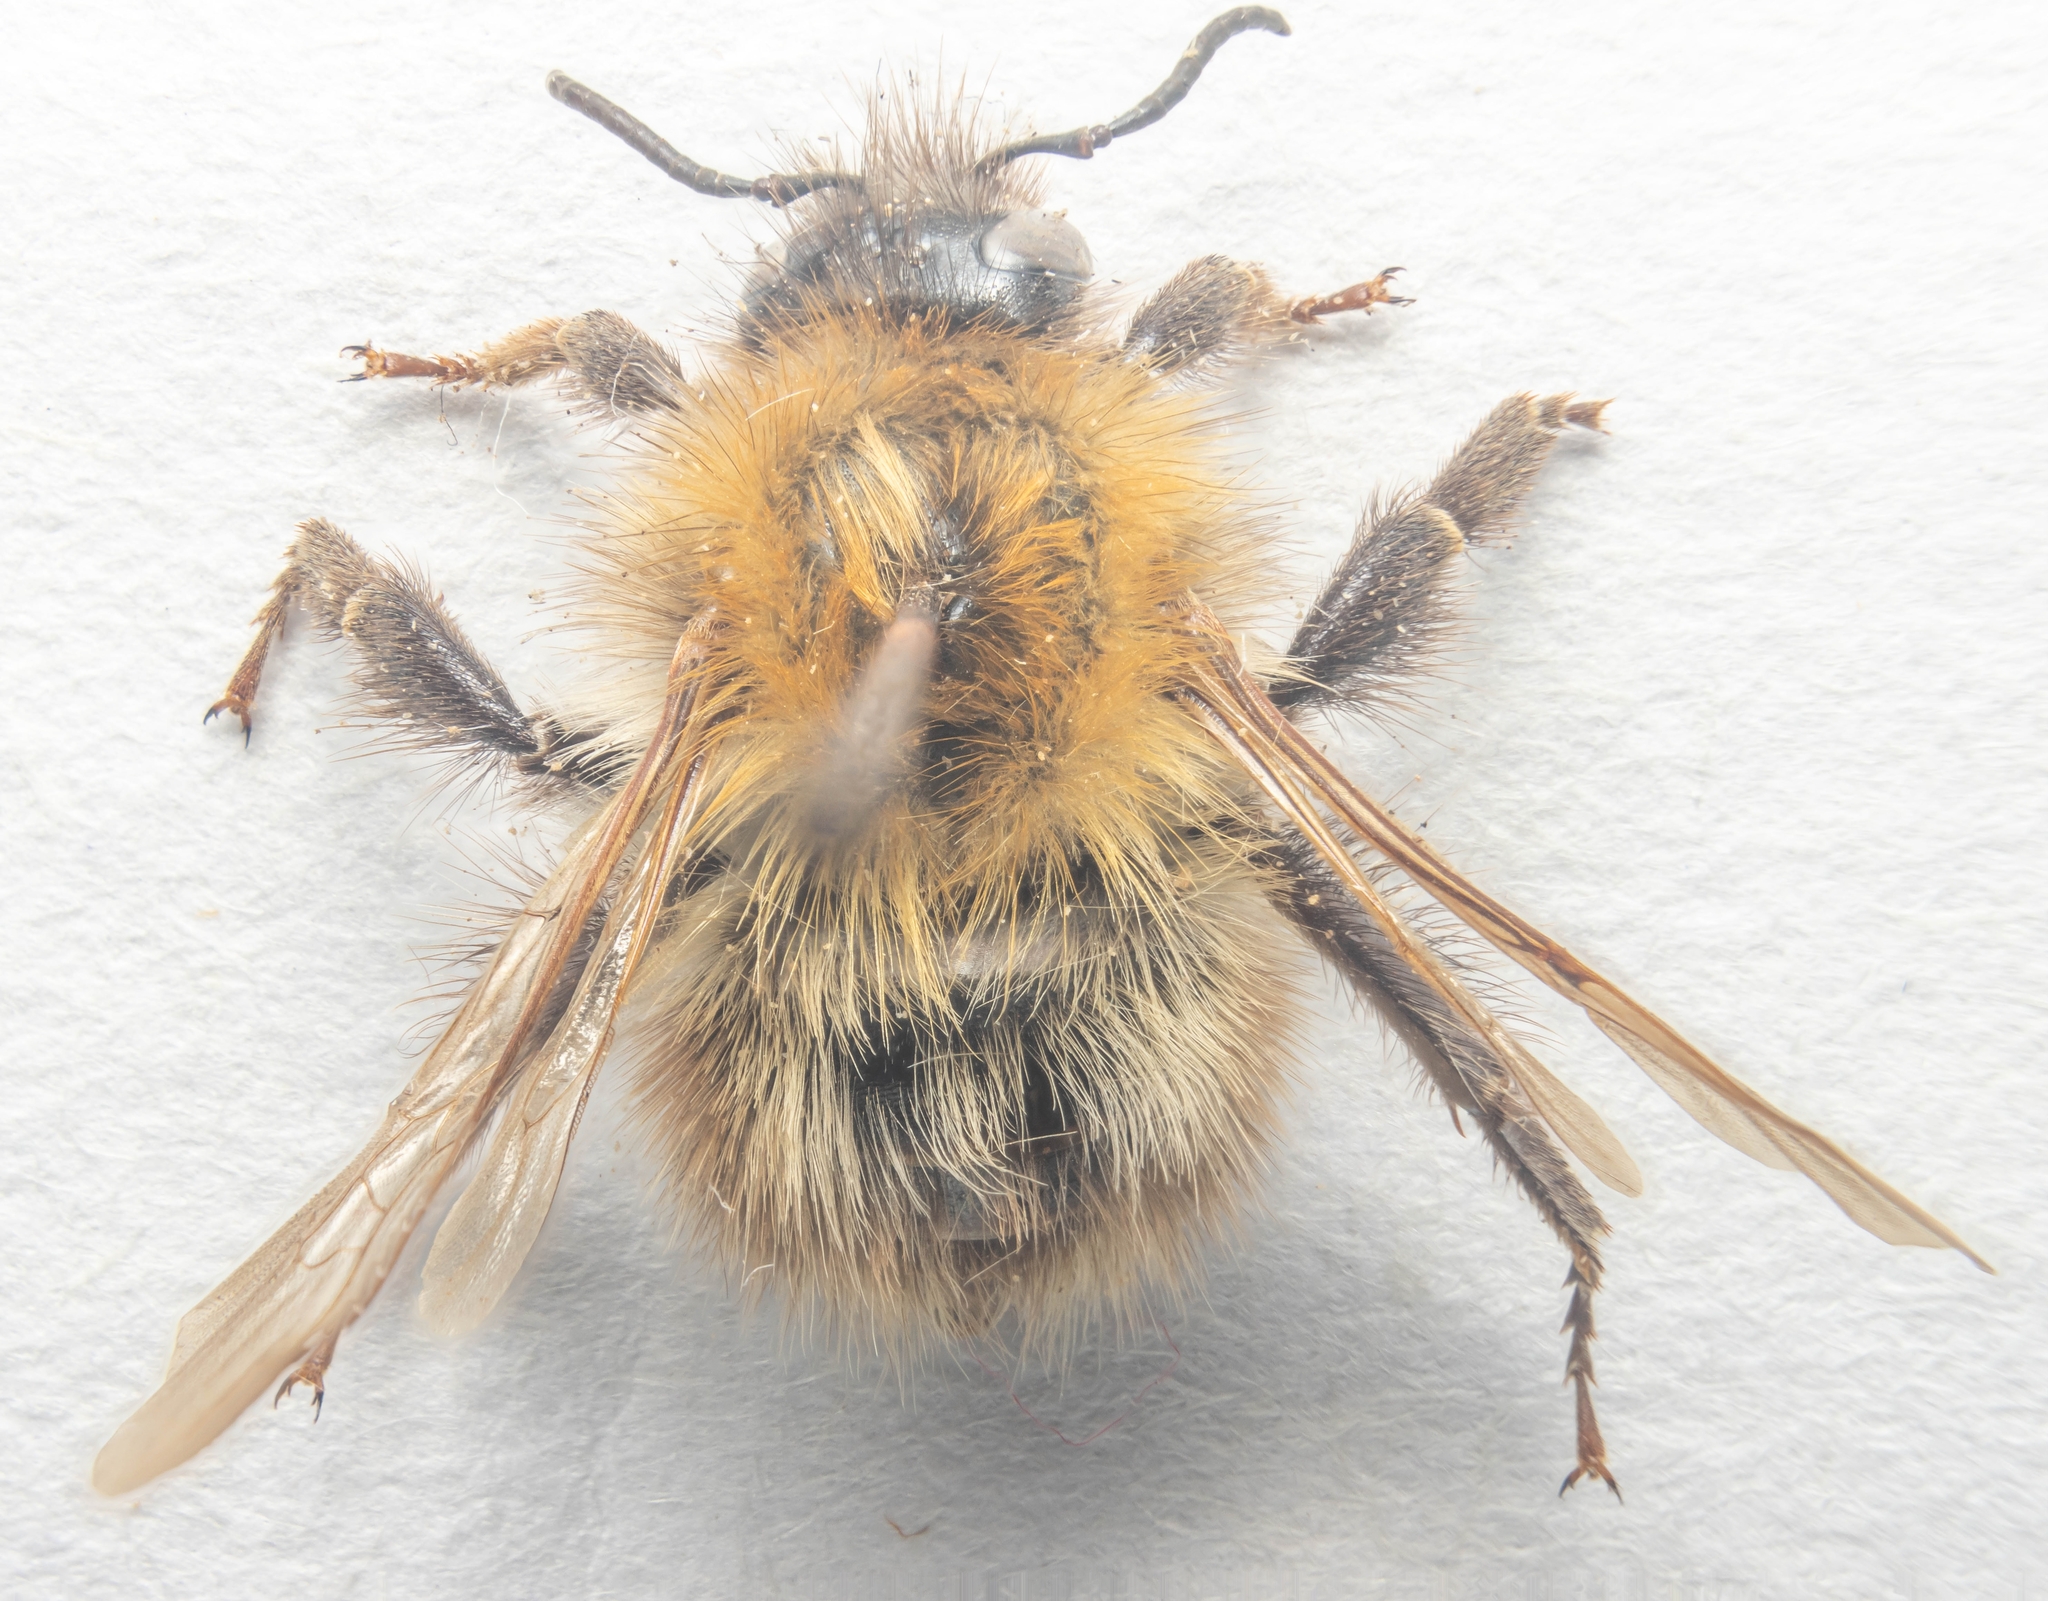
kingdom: Animalia
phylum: Arthropoda
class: Insecta
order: Hymenoptera
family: Apidae
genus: Bombus
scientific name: Bombus pascuorum
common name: Common carder bee
